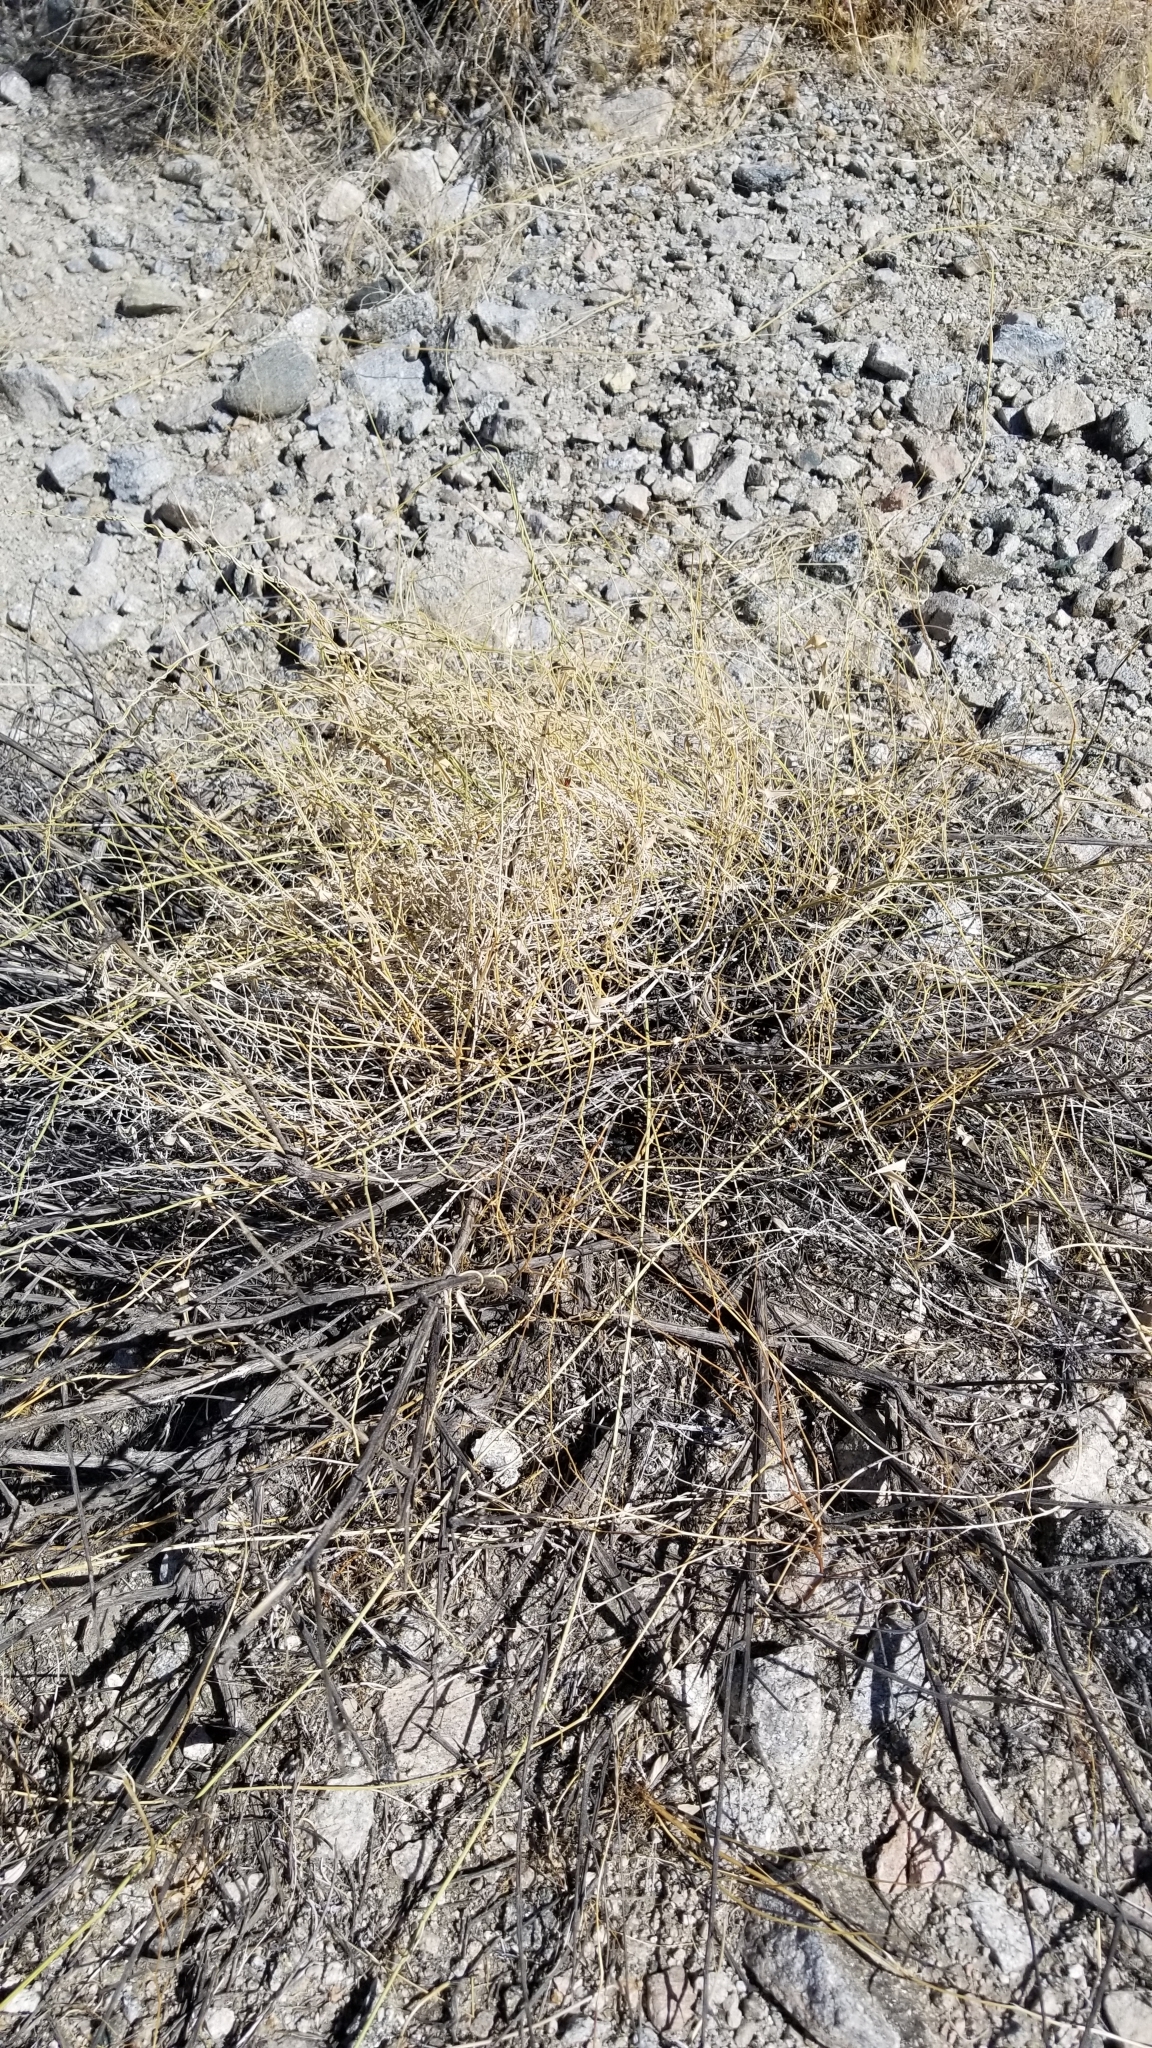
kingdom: Plantae
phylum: Tracheophyta
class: Magnoliopsida
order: Gentianales
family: Apocynaceae
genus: Funastrum
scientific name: Funastrum heterophyllum
